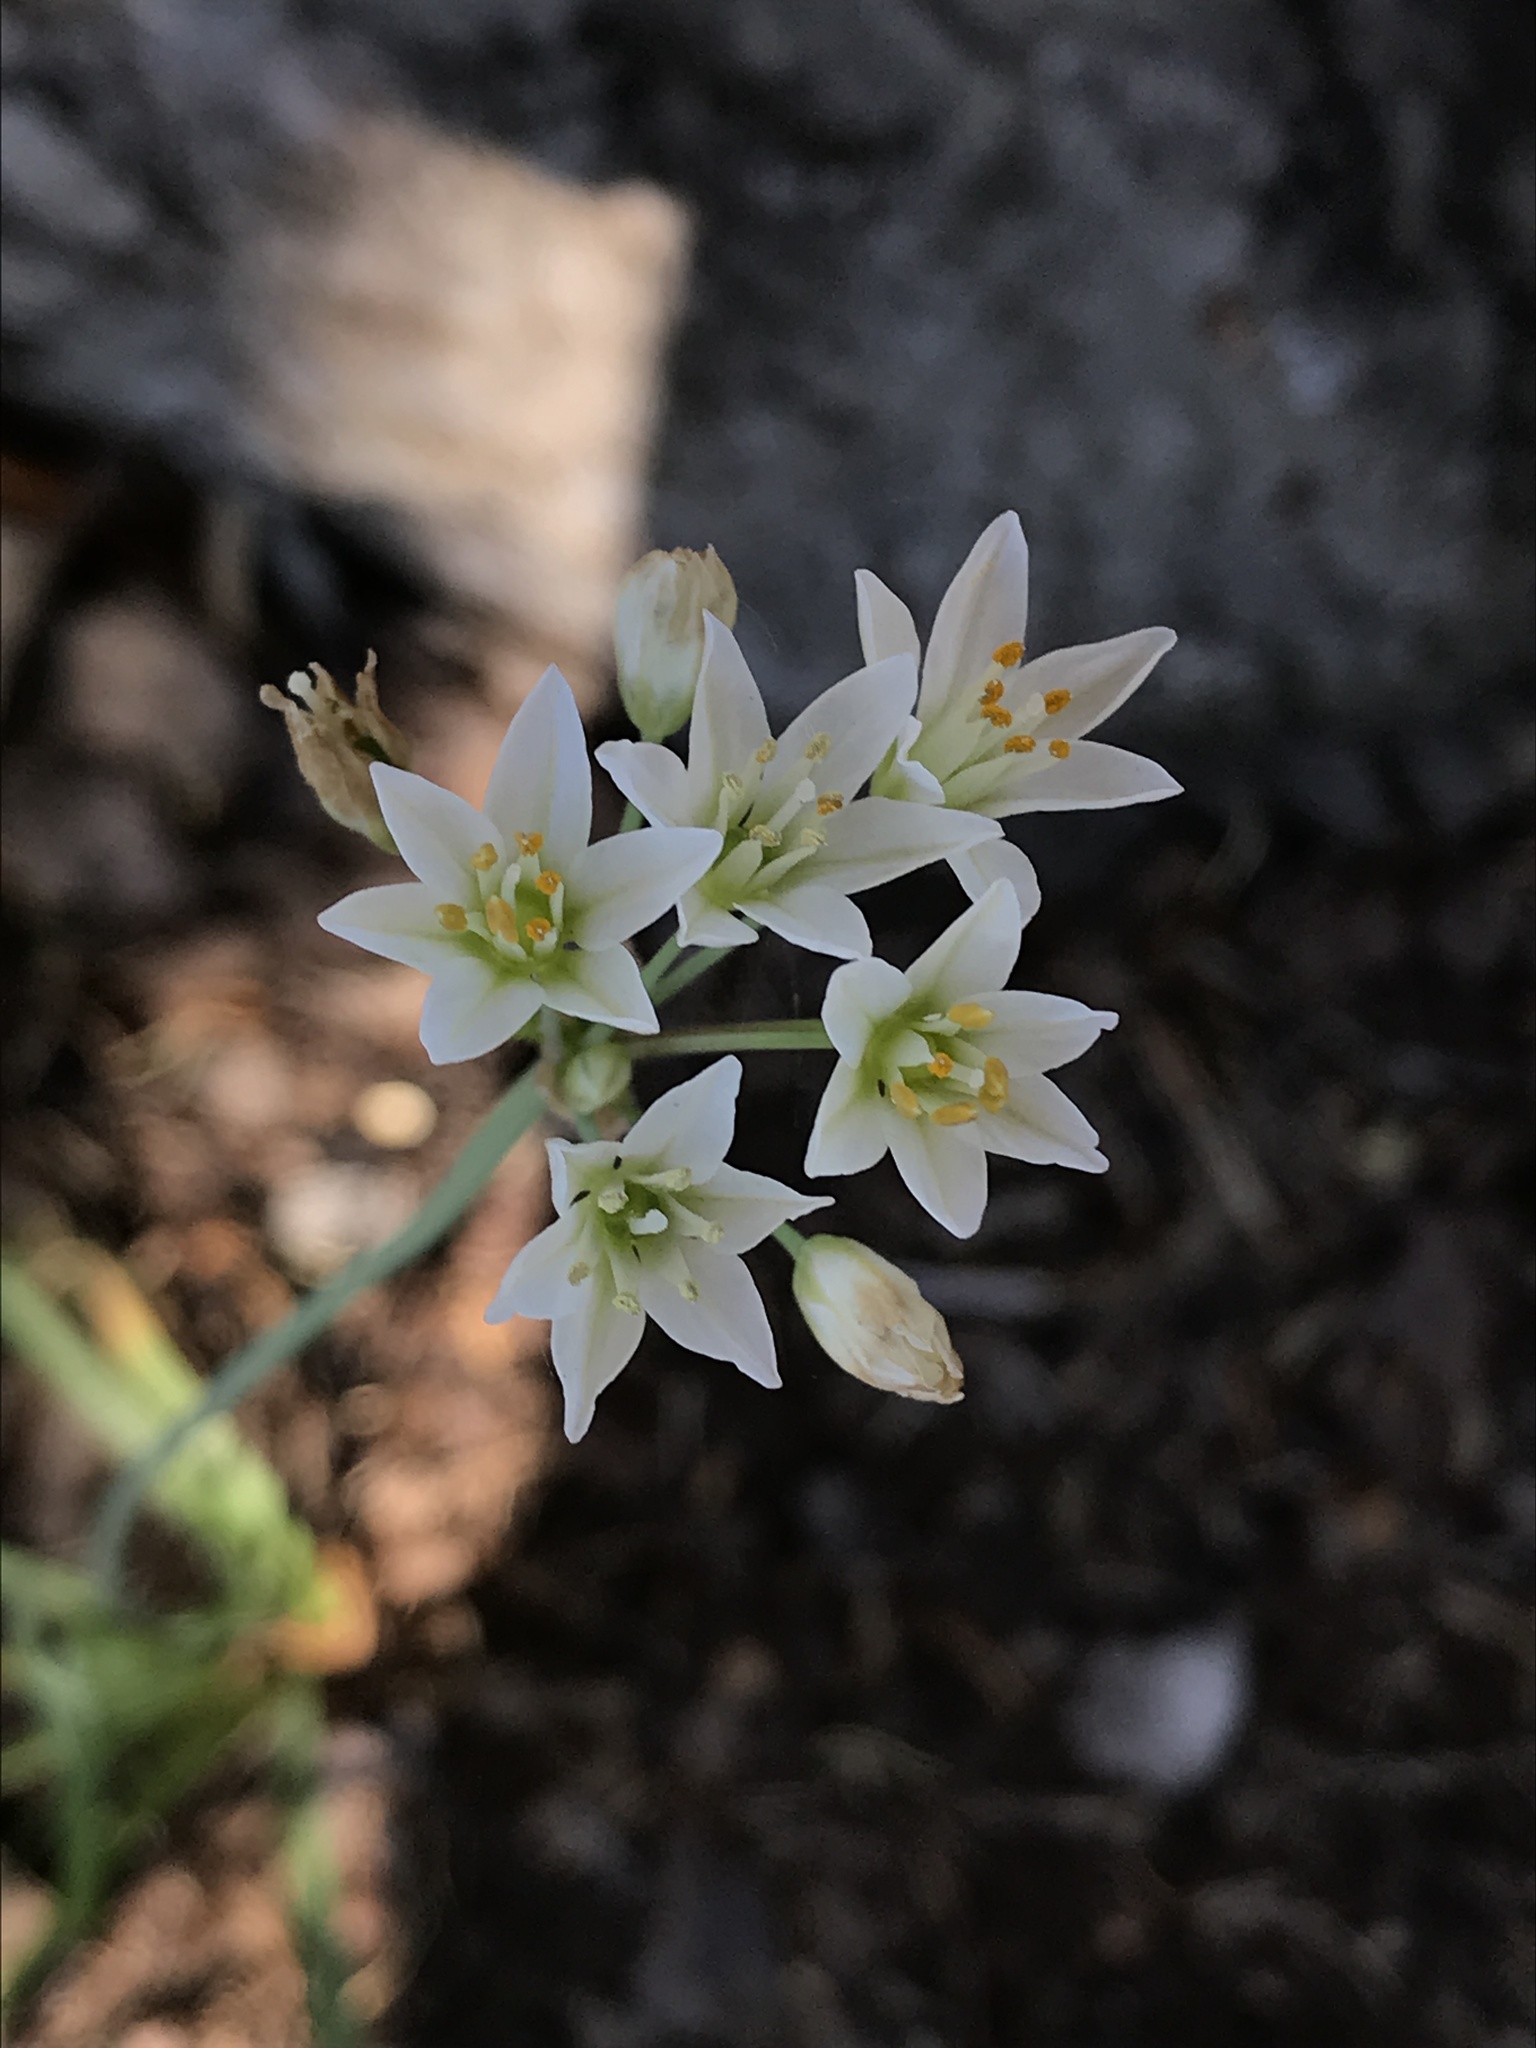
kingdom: Plantae
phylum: Tracheophyta
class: Liliopsida
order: Asparagales
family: Amaryllidaceae
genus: Nothoscordum
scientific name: Nothoscordum gracile
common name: Slender false garlic
